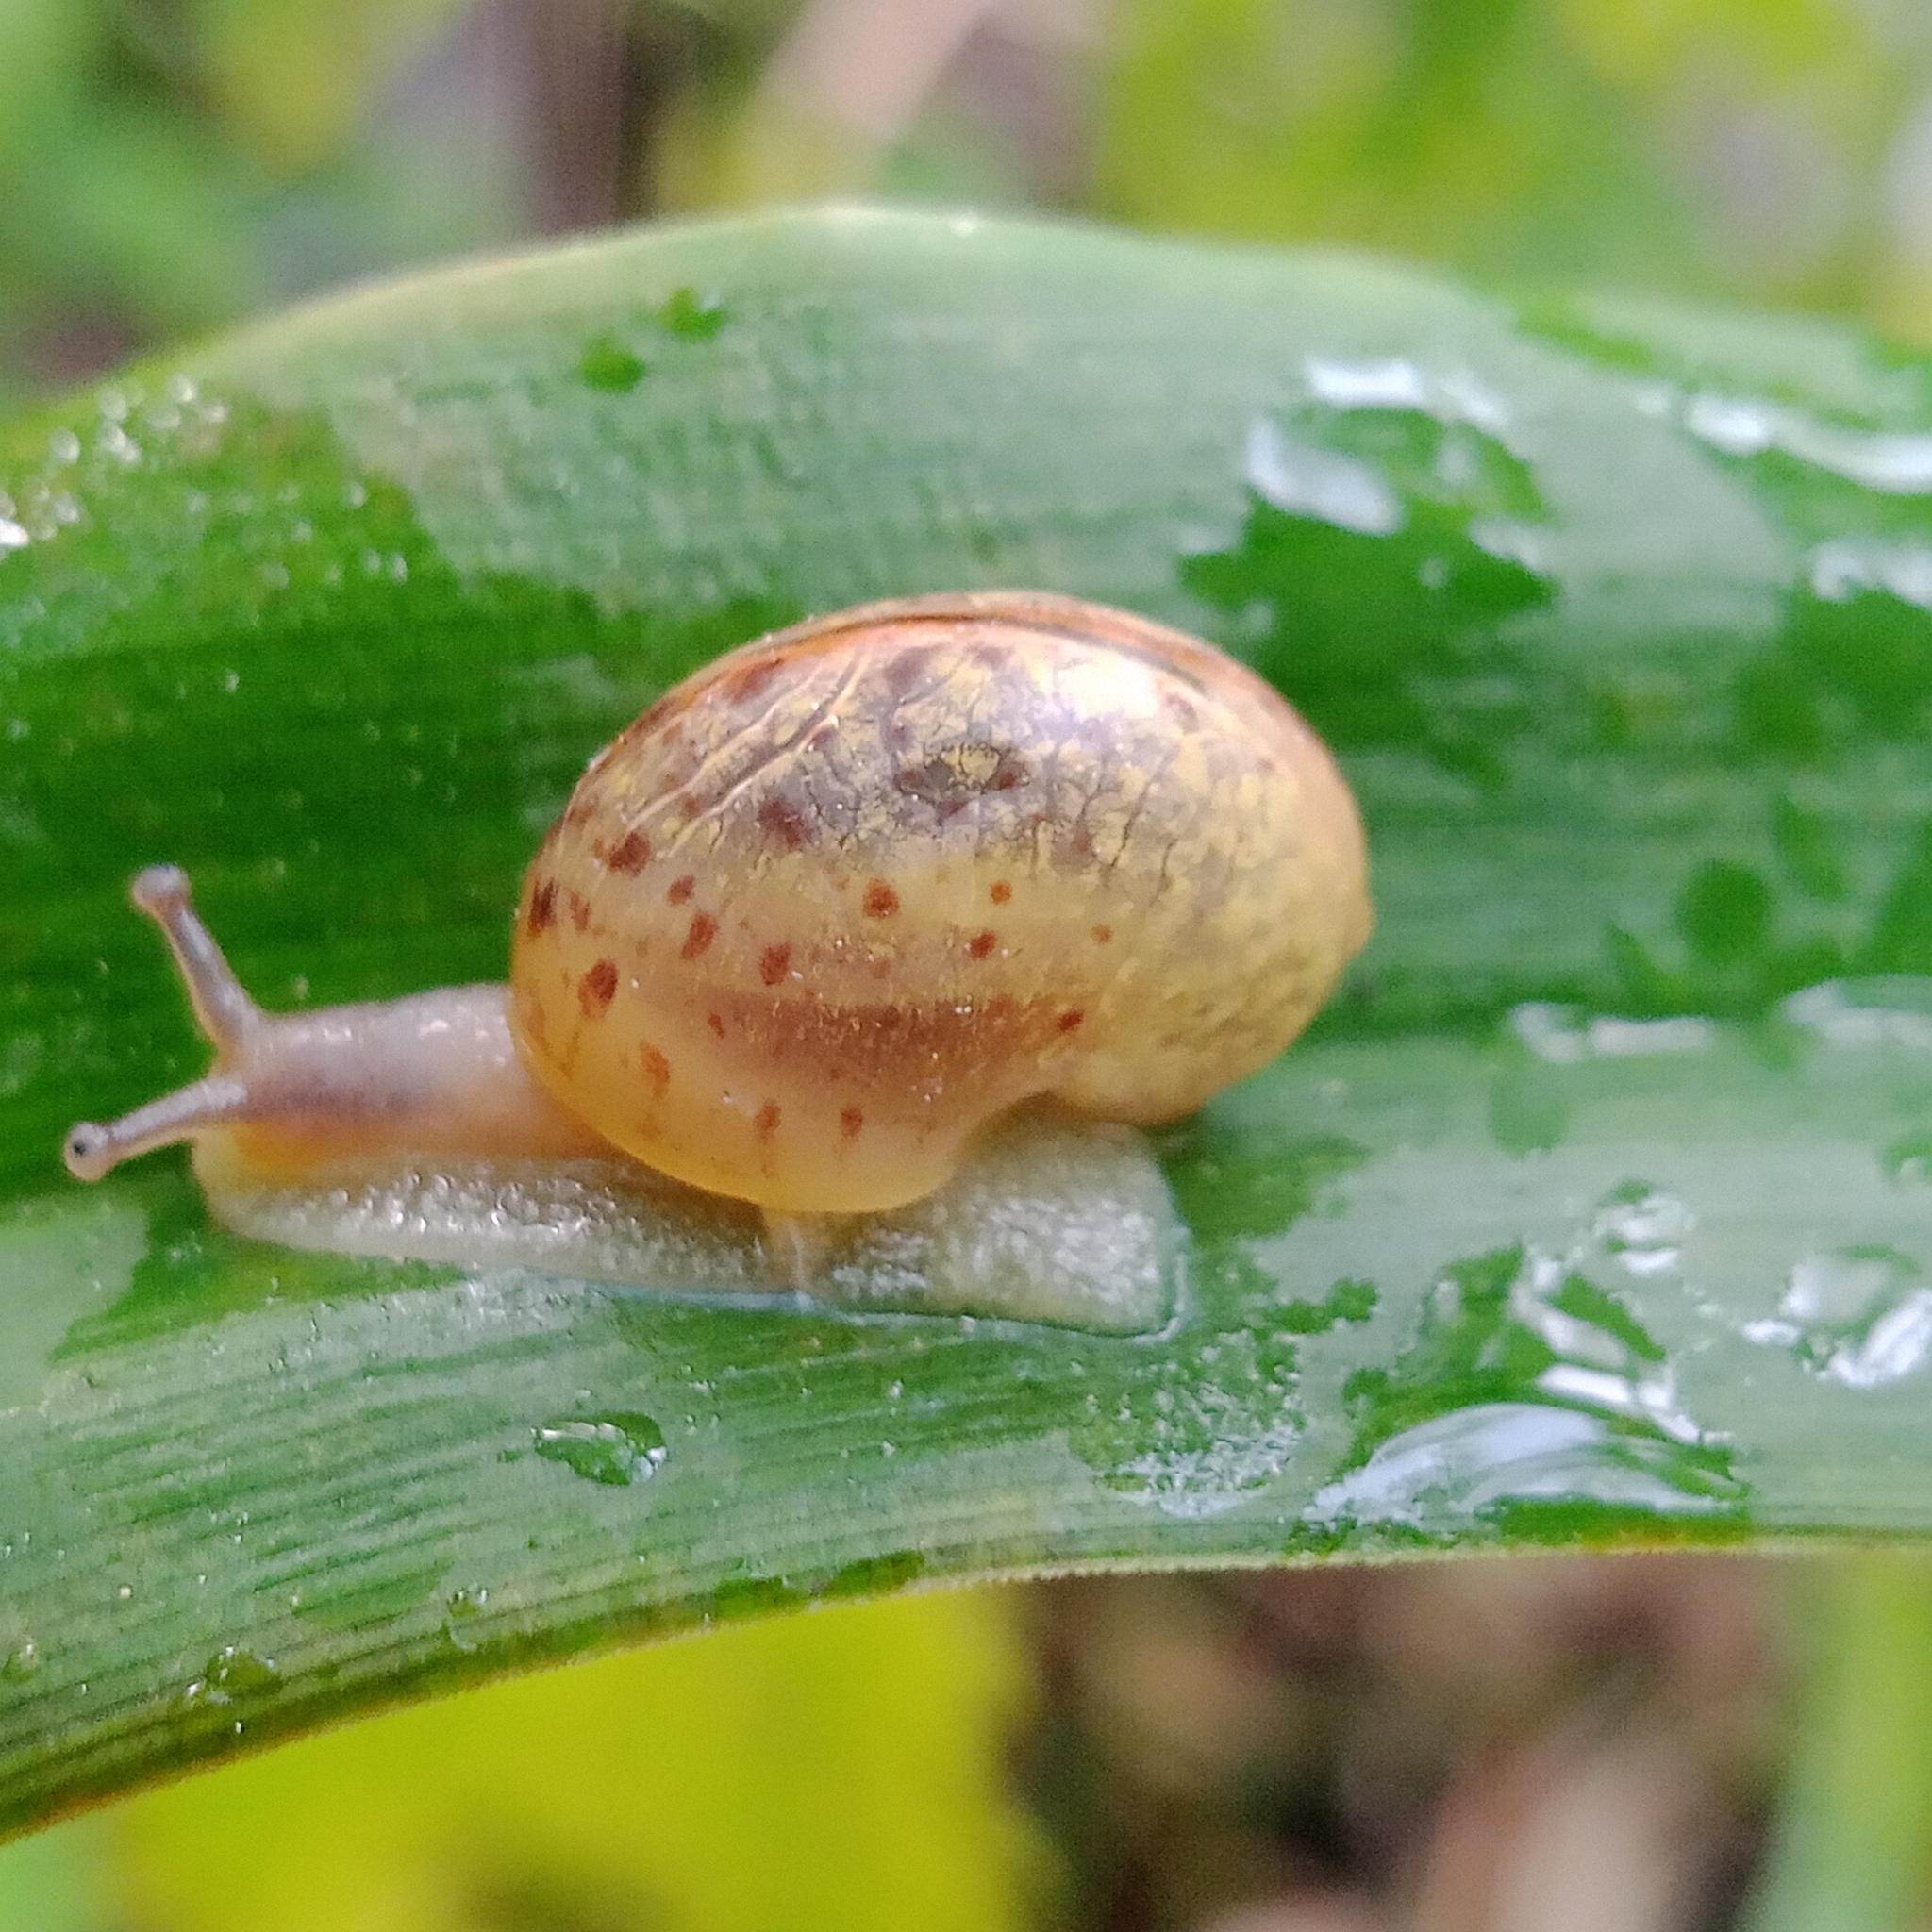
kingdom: Animalia
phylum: Mollusca
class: Gastropoda
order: Stylommatophora
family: Camaenidae
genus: Fruticicola
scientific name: Fruticicola fruticum
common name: Bush snail
